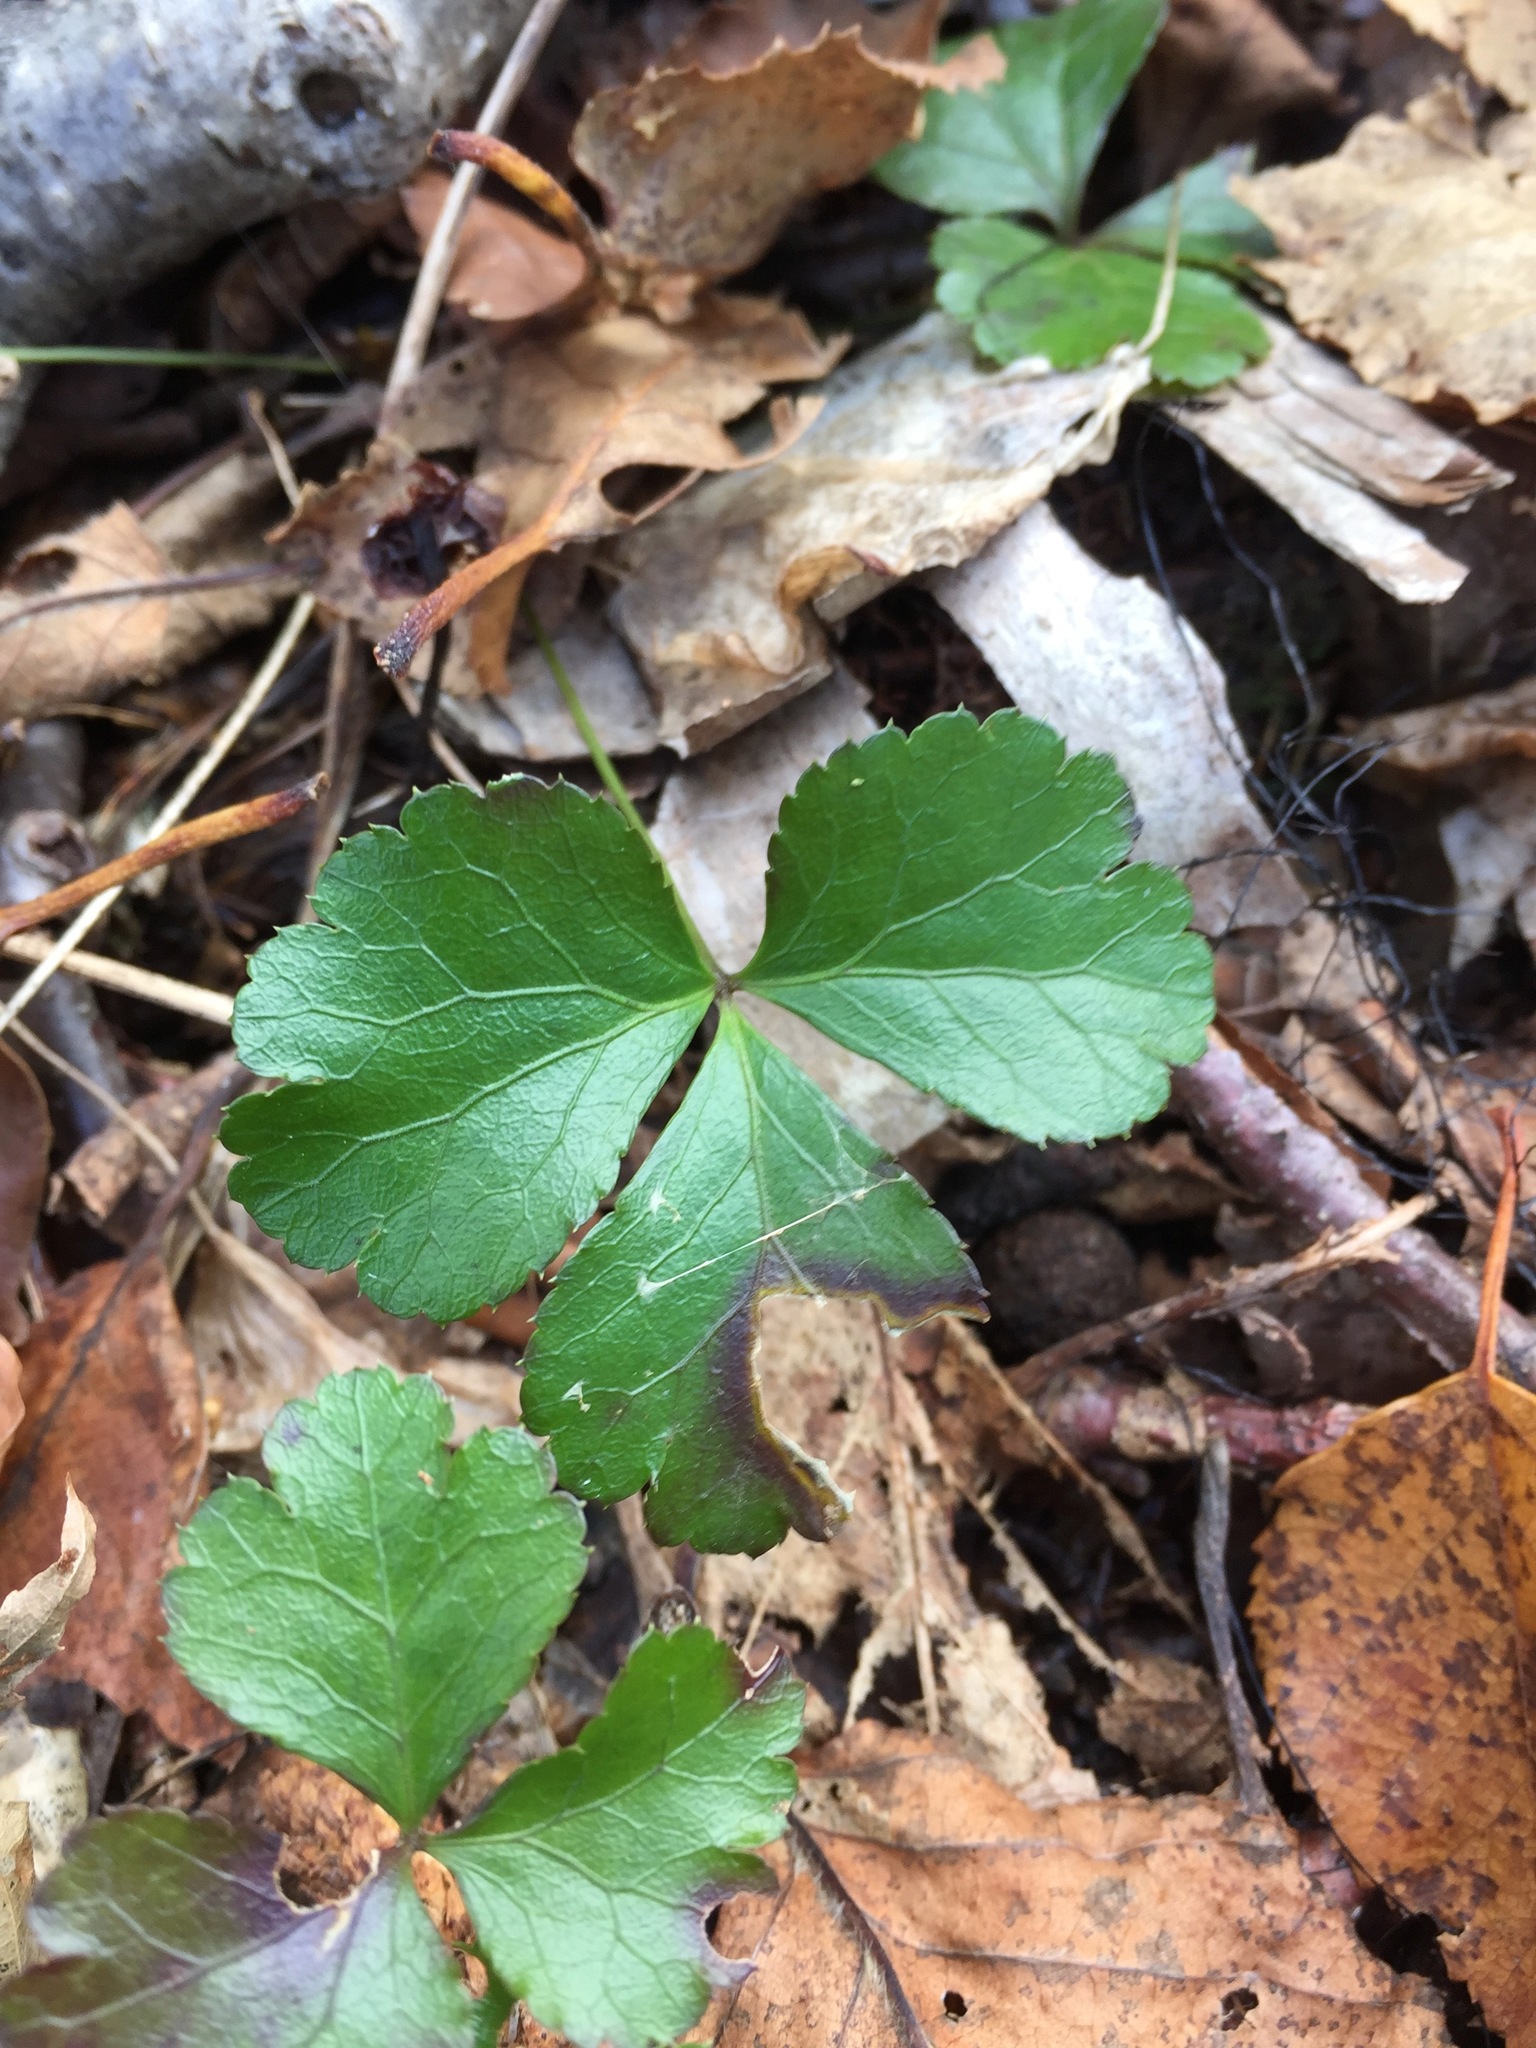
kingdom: Plantae
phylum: Tracheophyta
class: Magnoliopsida
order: Ranunculales
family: Ranunculaceae
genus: Coptis
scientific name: Coptis trifolia
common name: Canker-root
